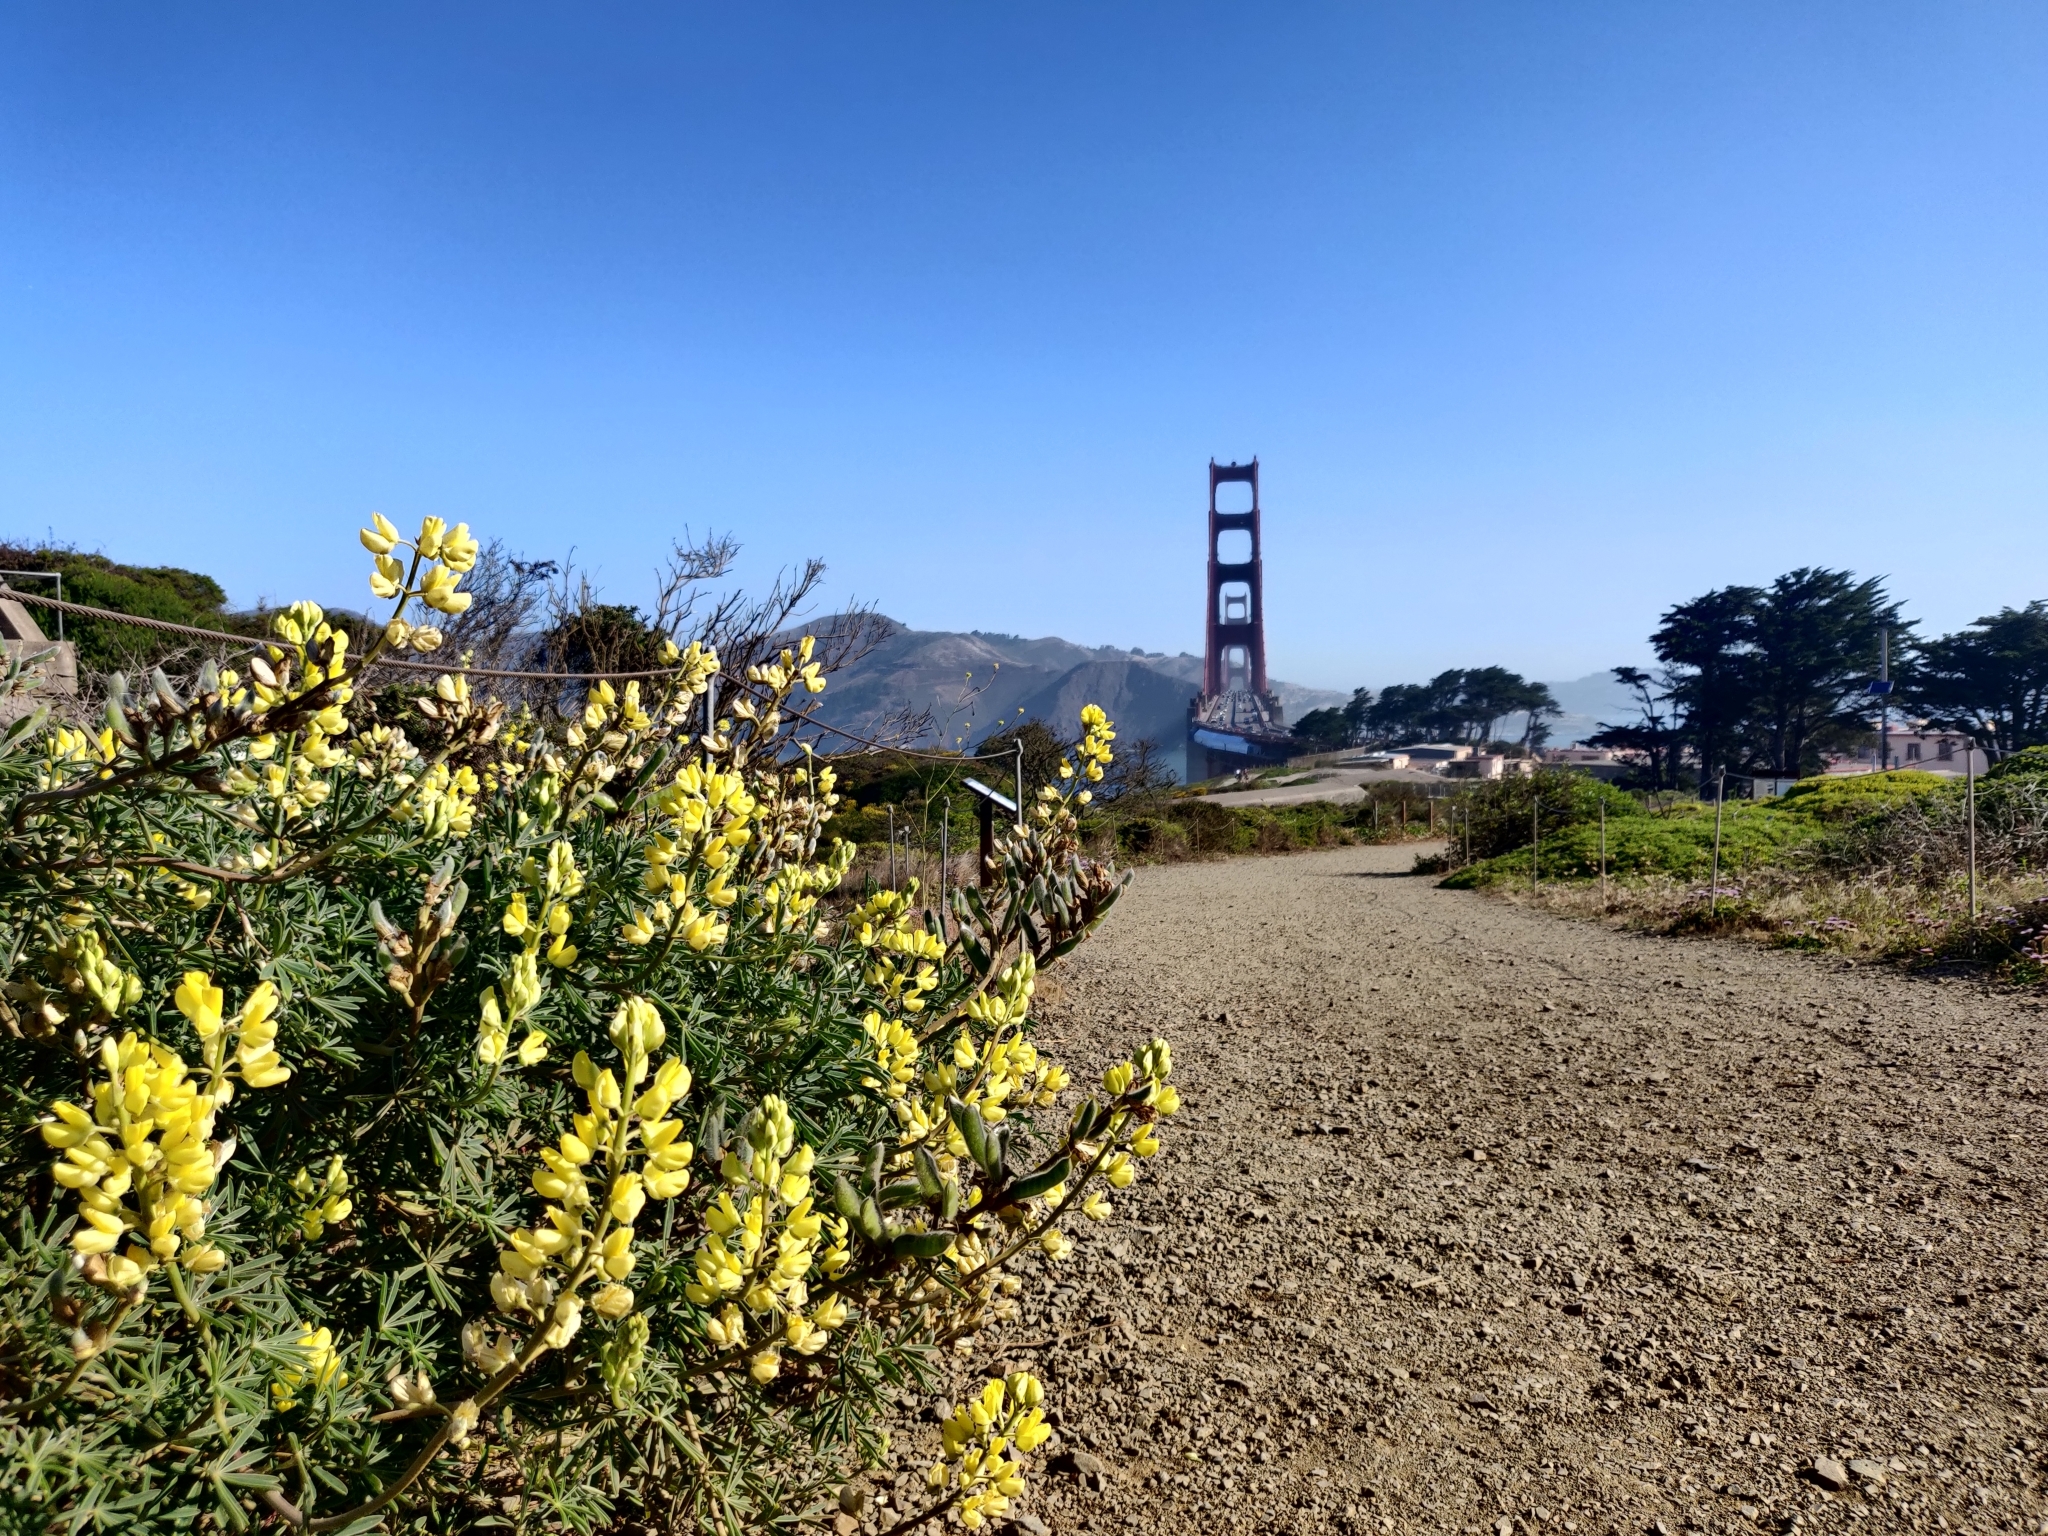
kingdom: Plantae
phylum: Tracheophyta
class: Magnoliopsida
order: Fabales
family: Fabaceae
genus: Lupinus
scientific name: Lupinus arboreus
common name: Yellow bush lupine
